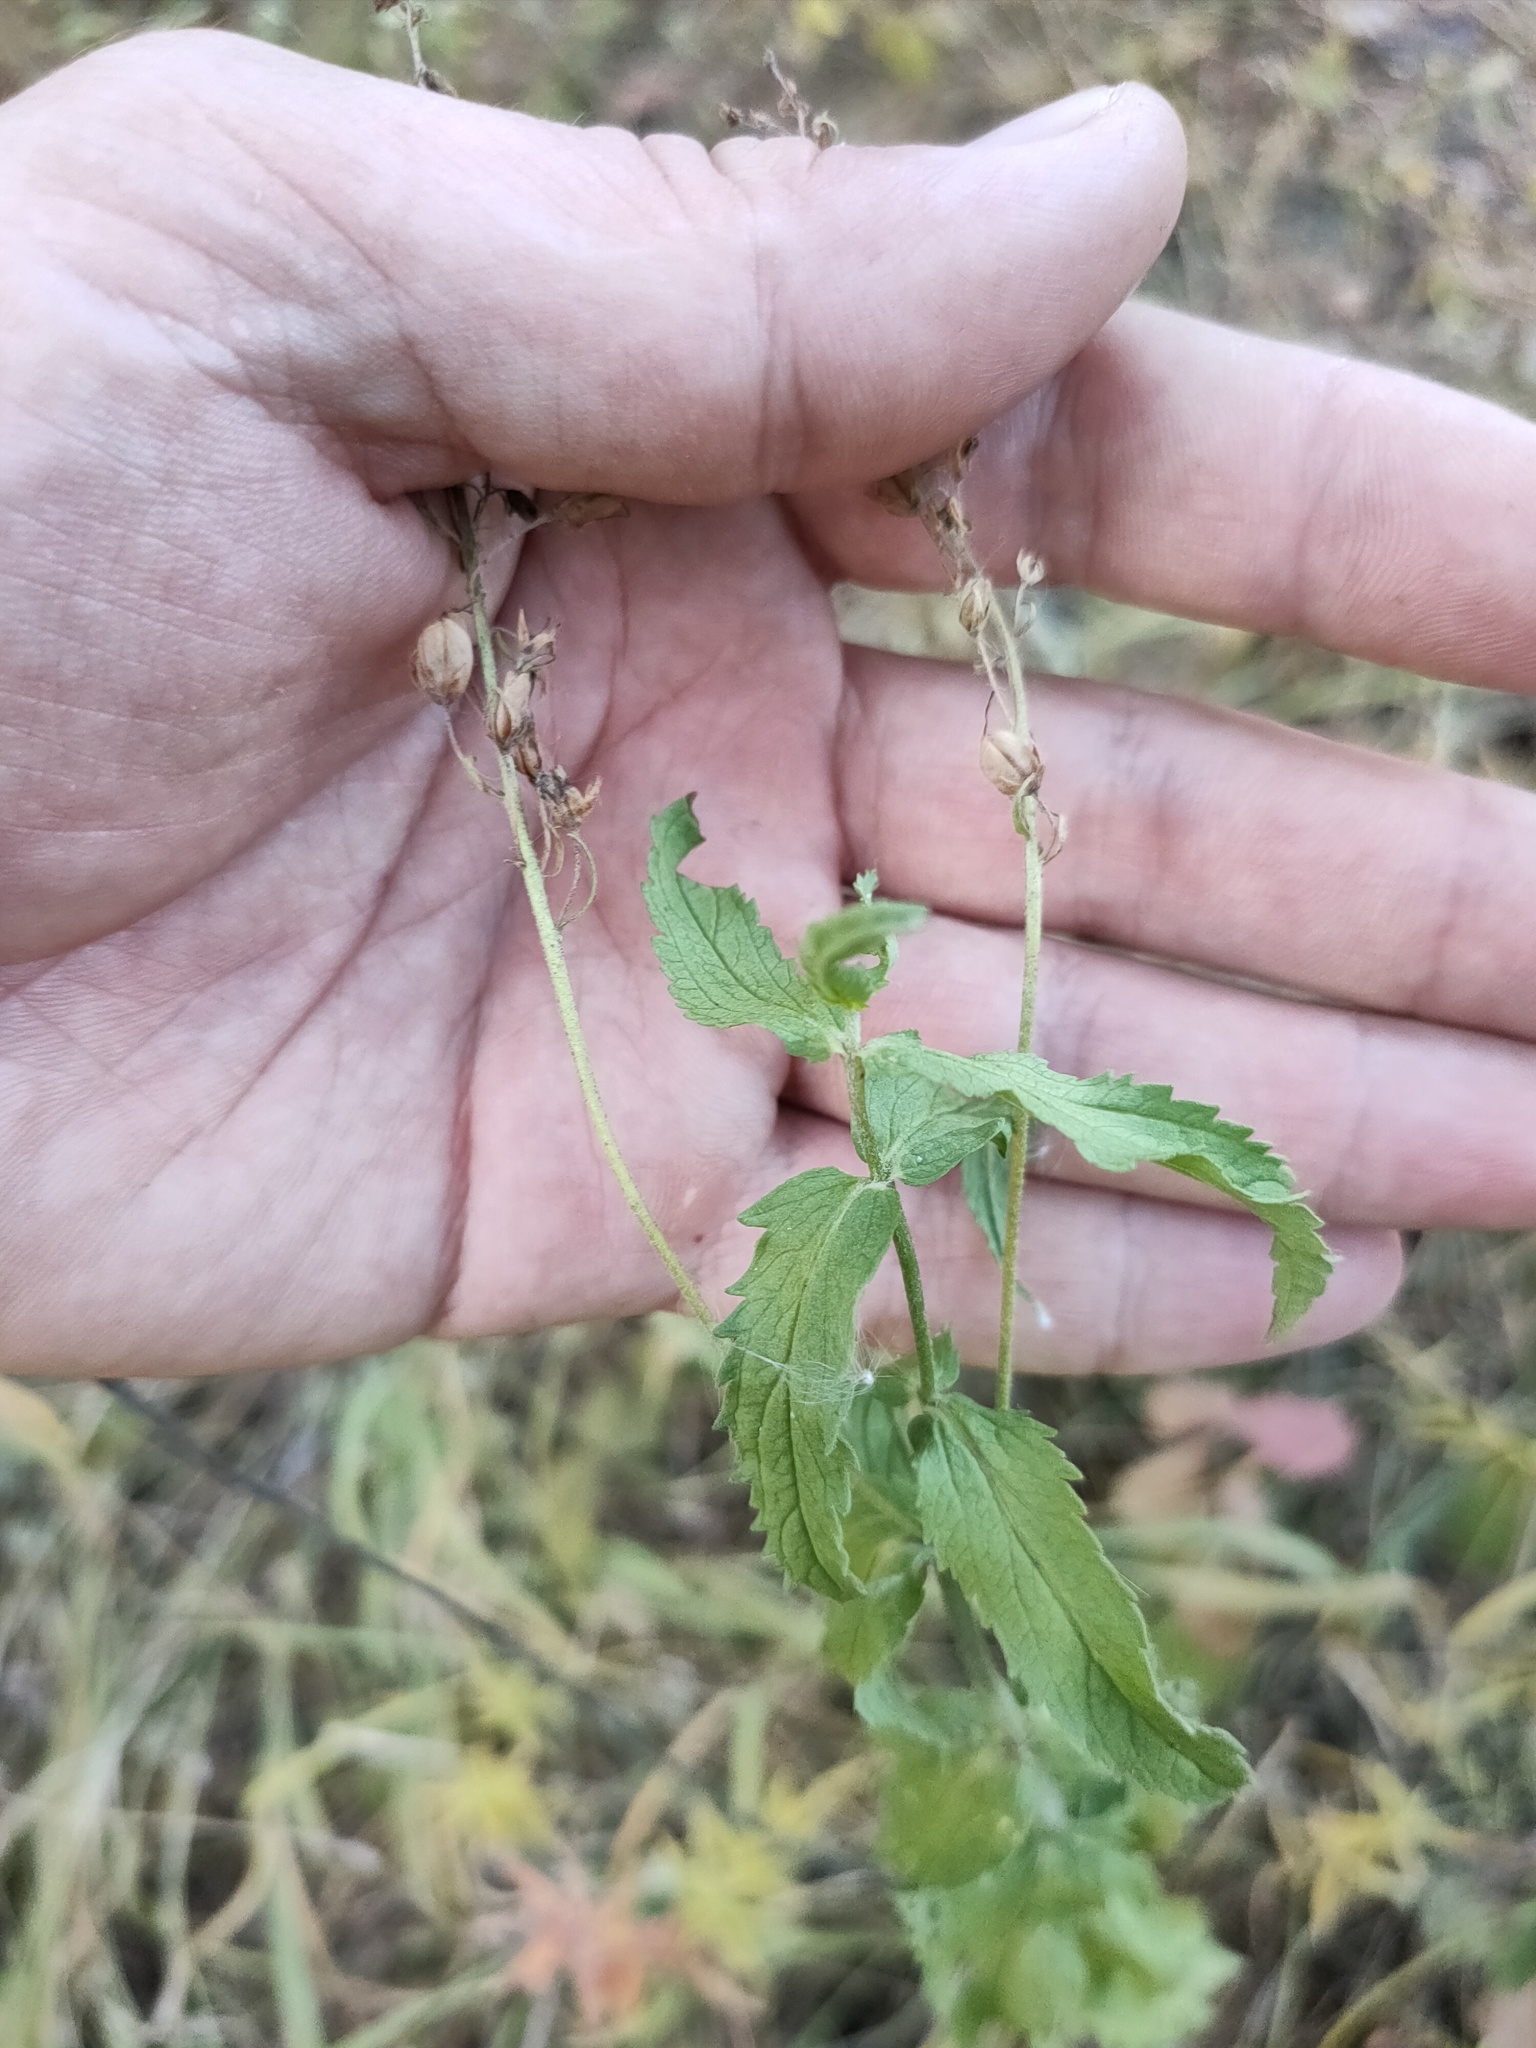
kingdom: Plantae
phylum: Tracheophyta
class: Magnoliopsida
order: Lamiales
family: Plantaginaceae
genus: Veronica
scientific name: Veronica teucrium
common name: Large speedwell
